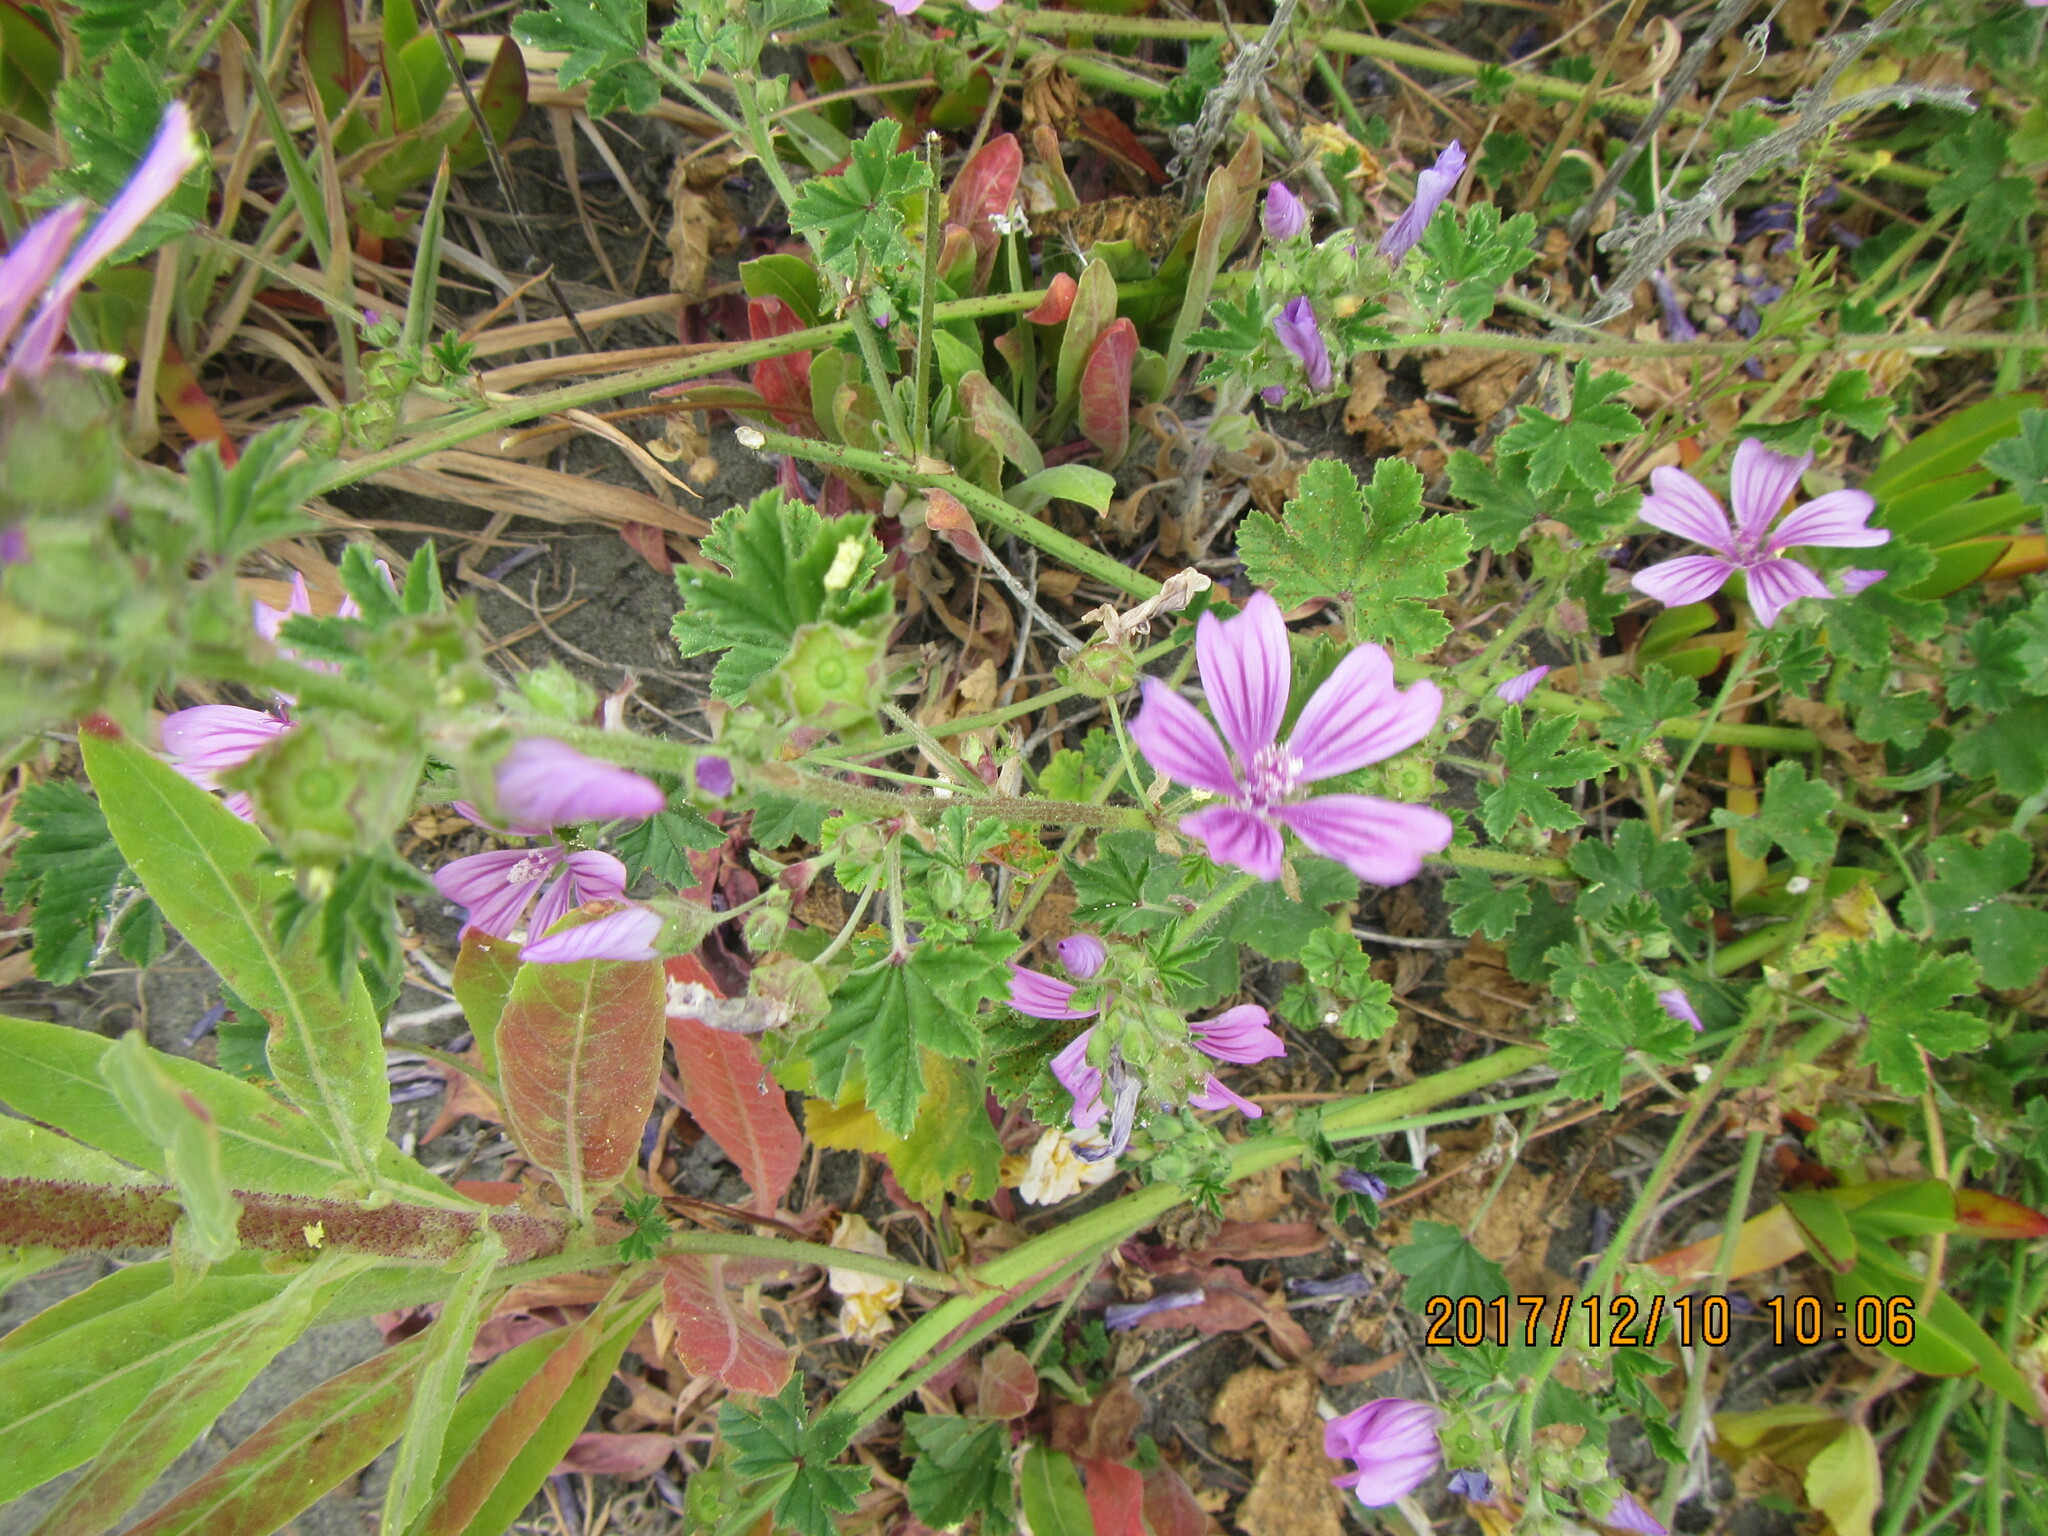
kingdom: Plantae
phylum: Tracheophyta
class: Magnoliopsida
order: Malvales
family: Malvaceae
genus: Malva
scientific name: Malva sylvestris
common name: Common mallow
